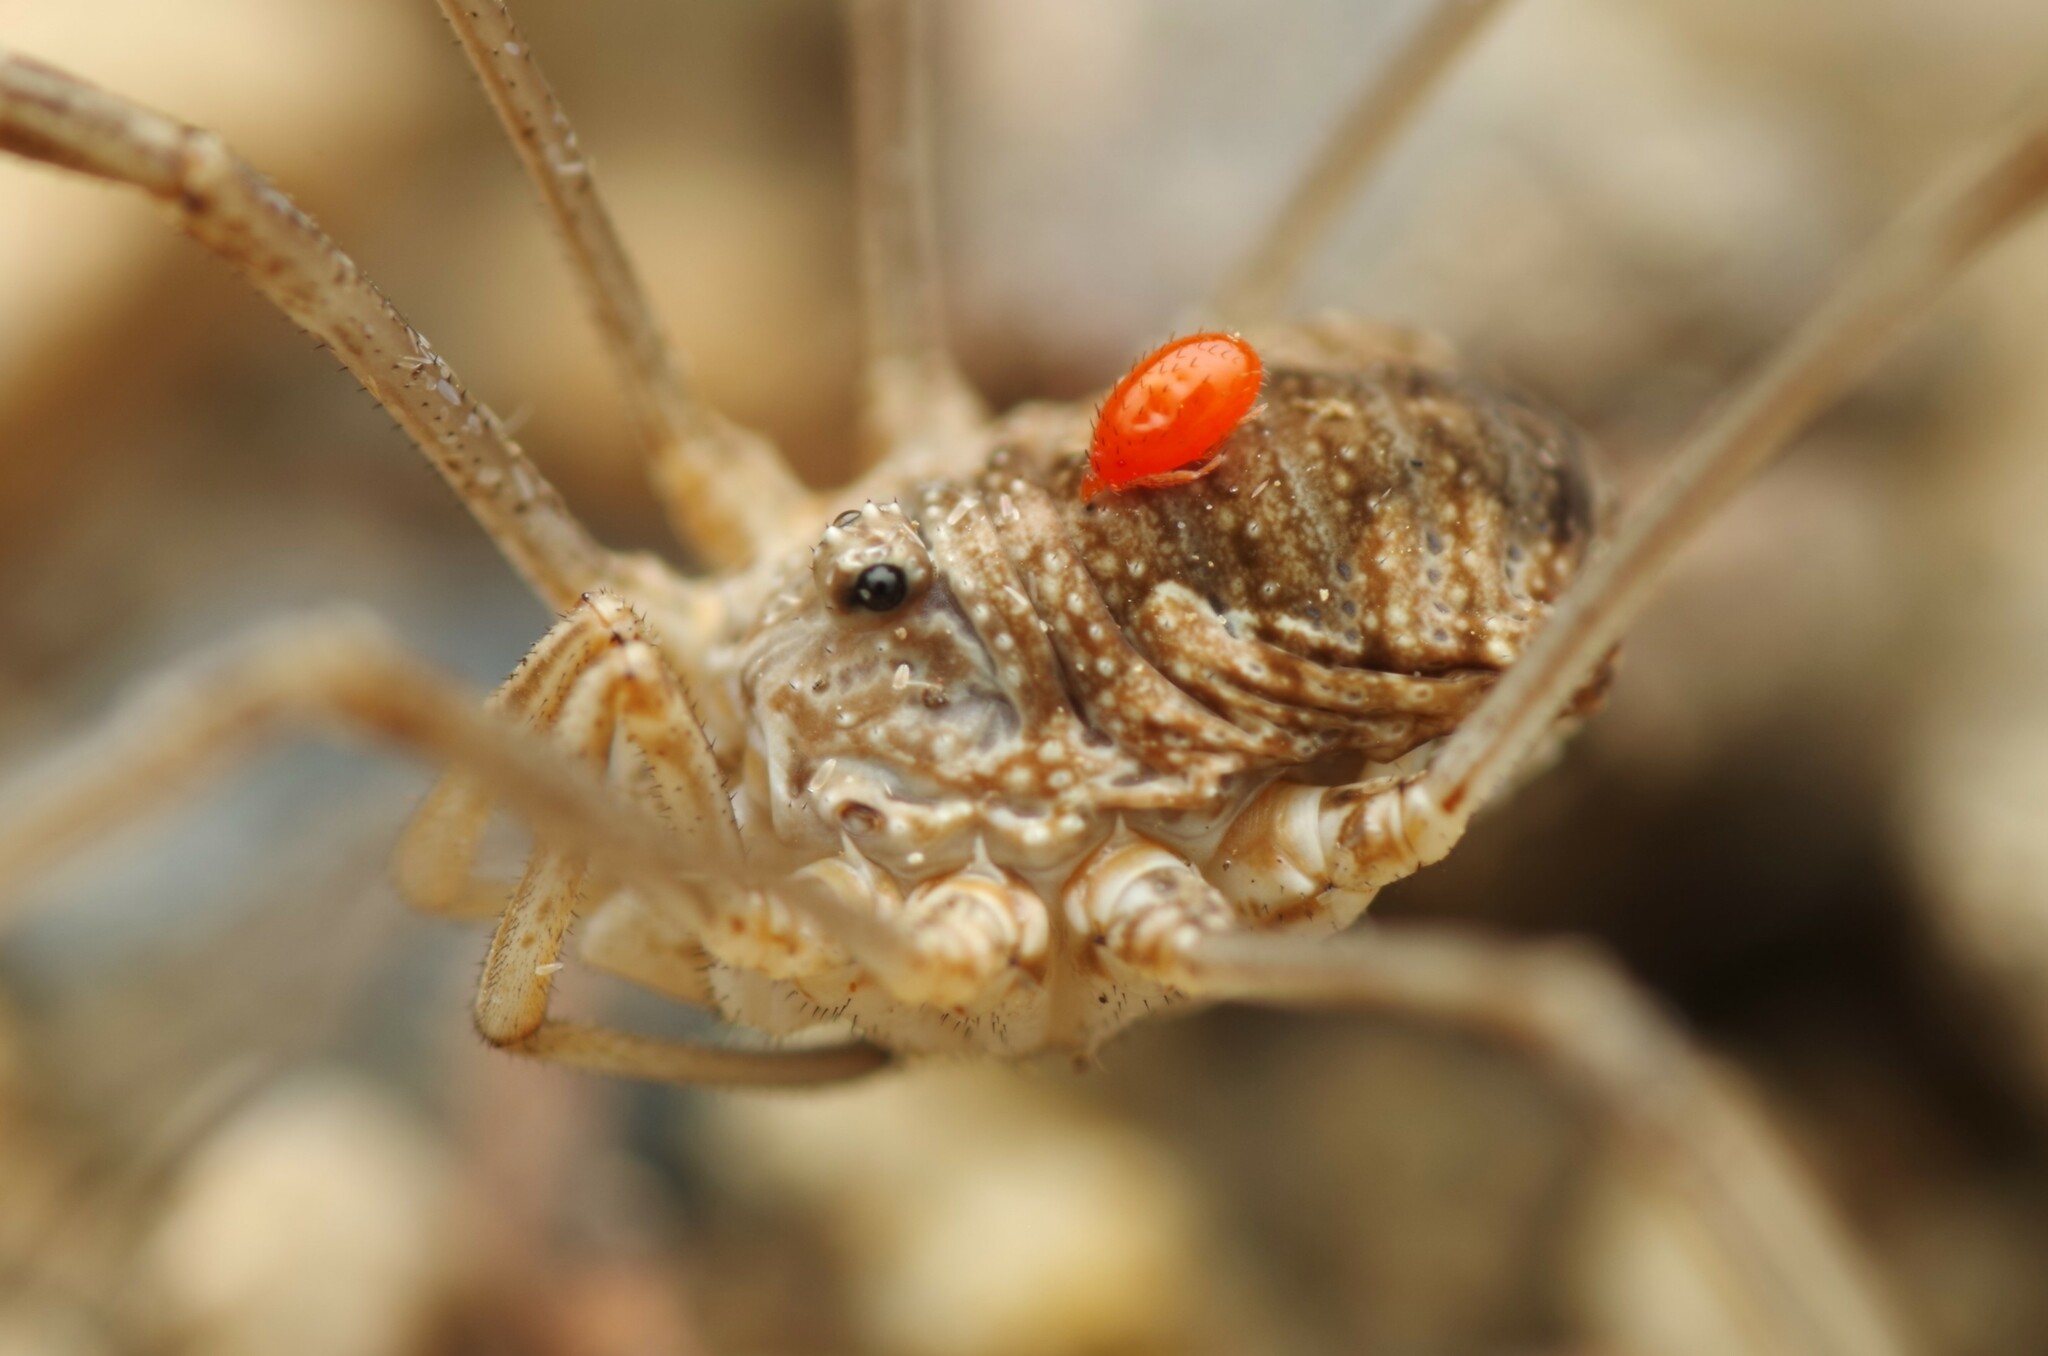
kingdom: Animalia
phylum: Arthropoda
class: Arachnida
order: Opiliones
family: Phalangiidae
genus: Phalangium
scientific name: Phalangium opilio
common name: Daddy longleg
